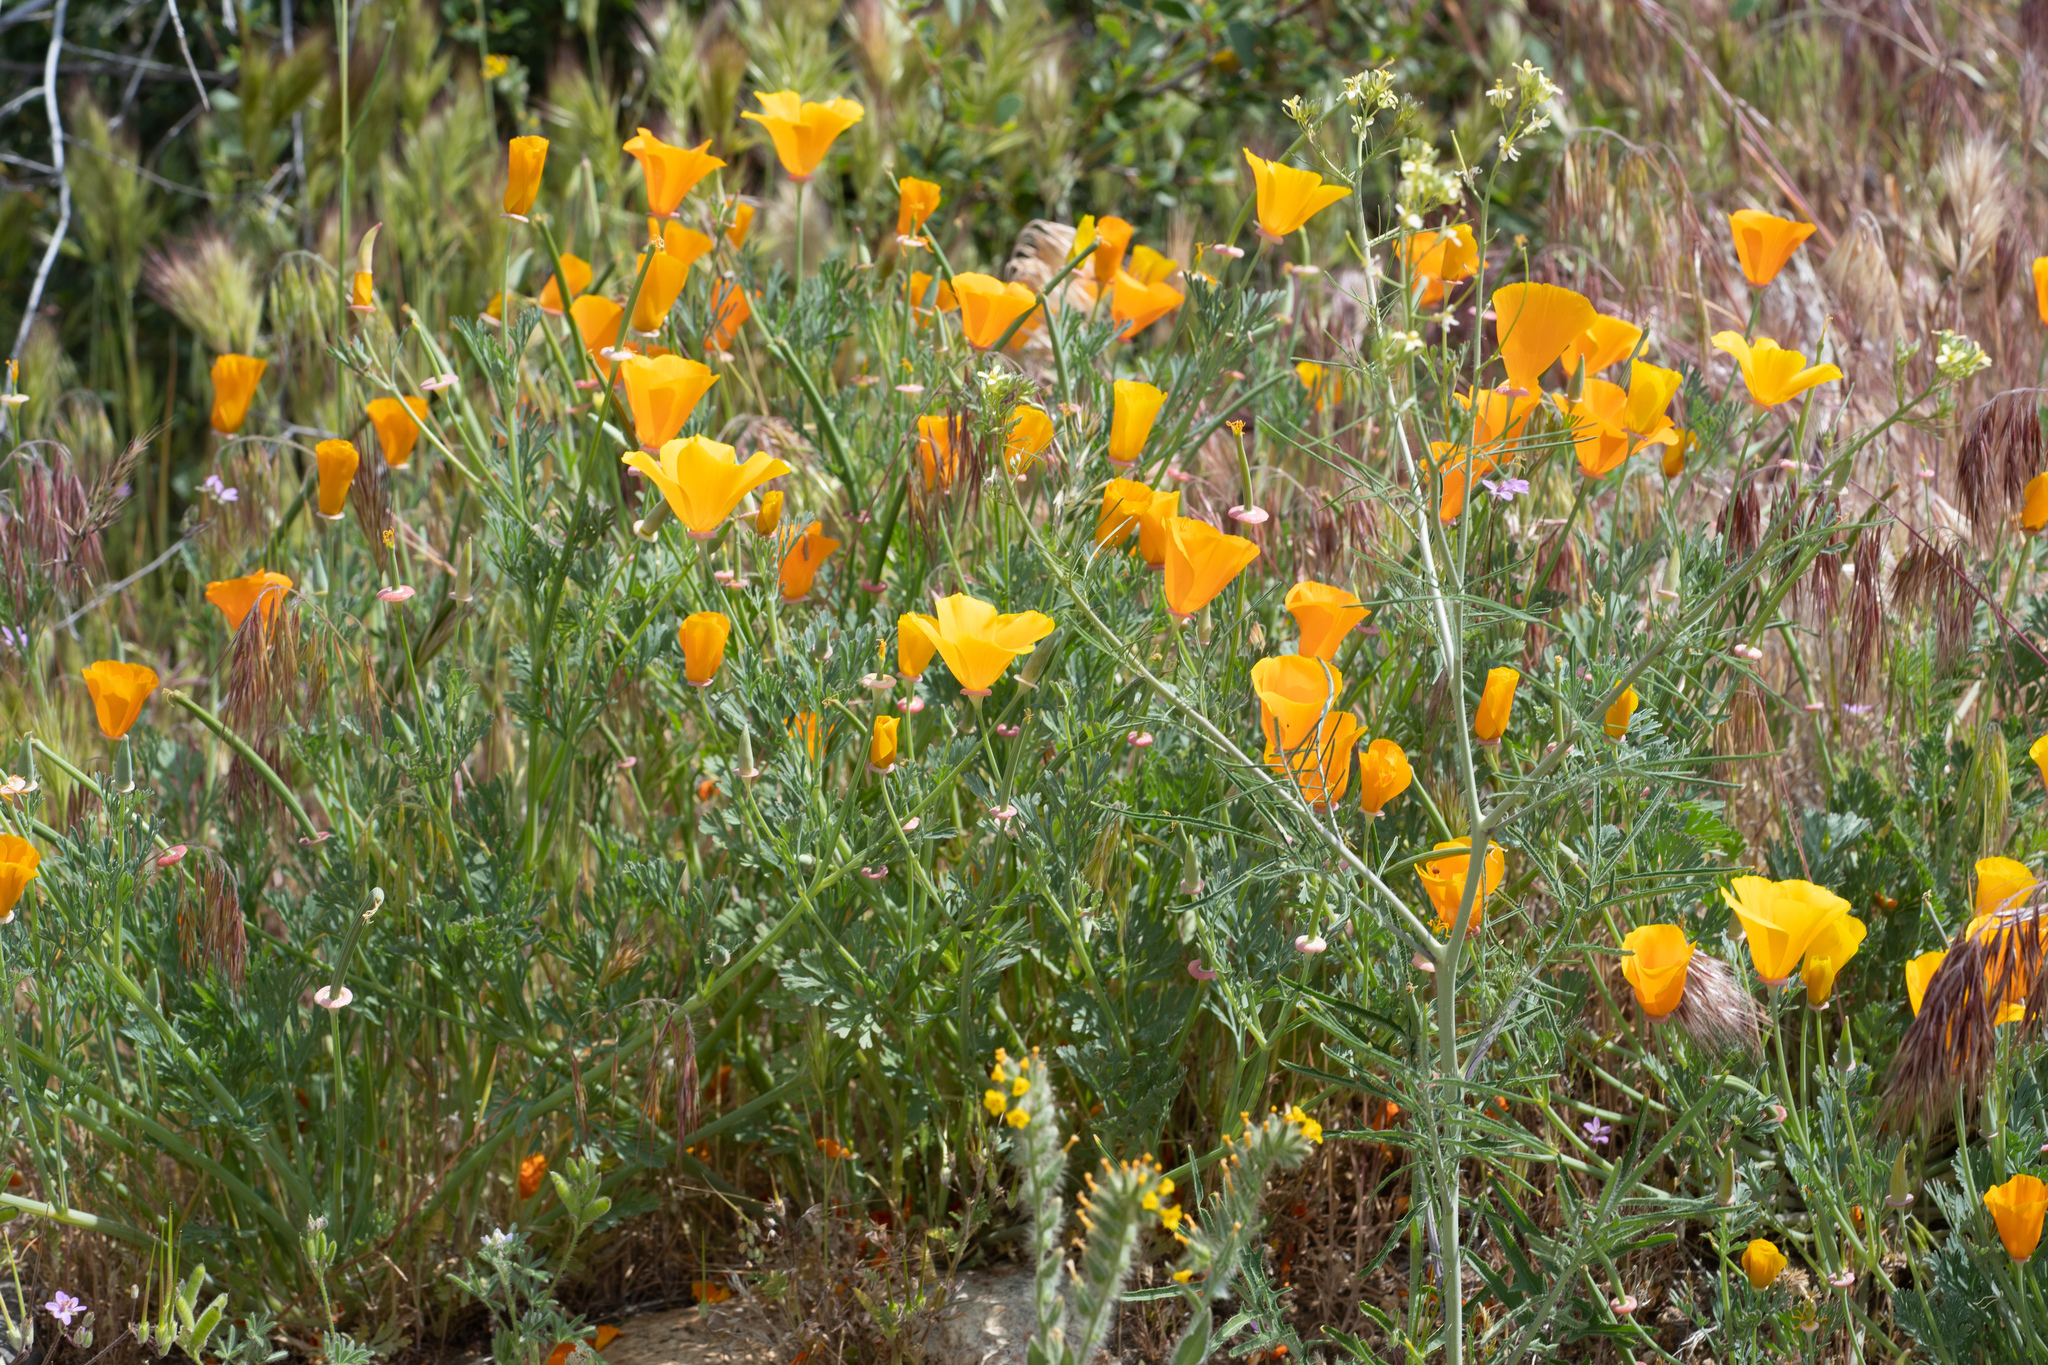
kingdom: Plantae
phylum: Tracheophyta
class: Magnoliopsida
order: Ranunculales
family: Papaveraceae
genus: Eschscholzia
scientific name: Eschscholzia californica
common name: California poppy
